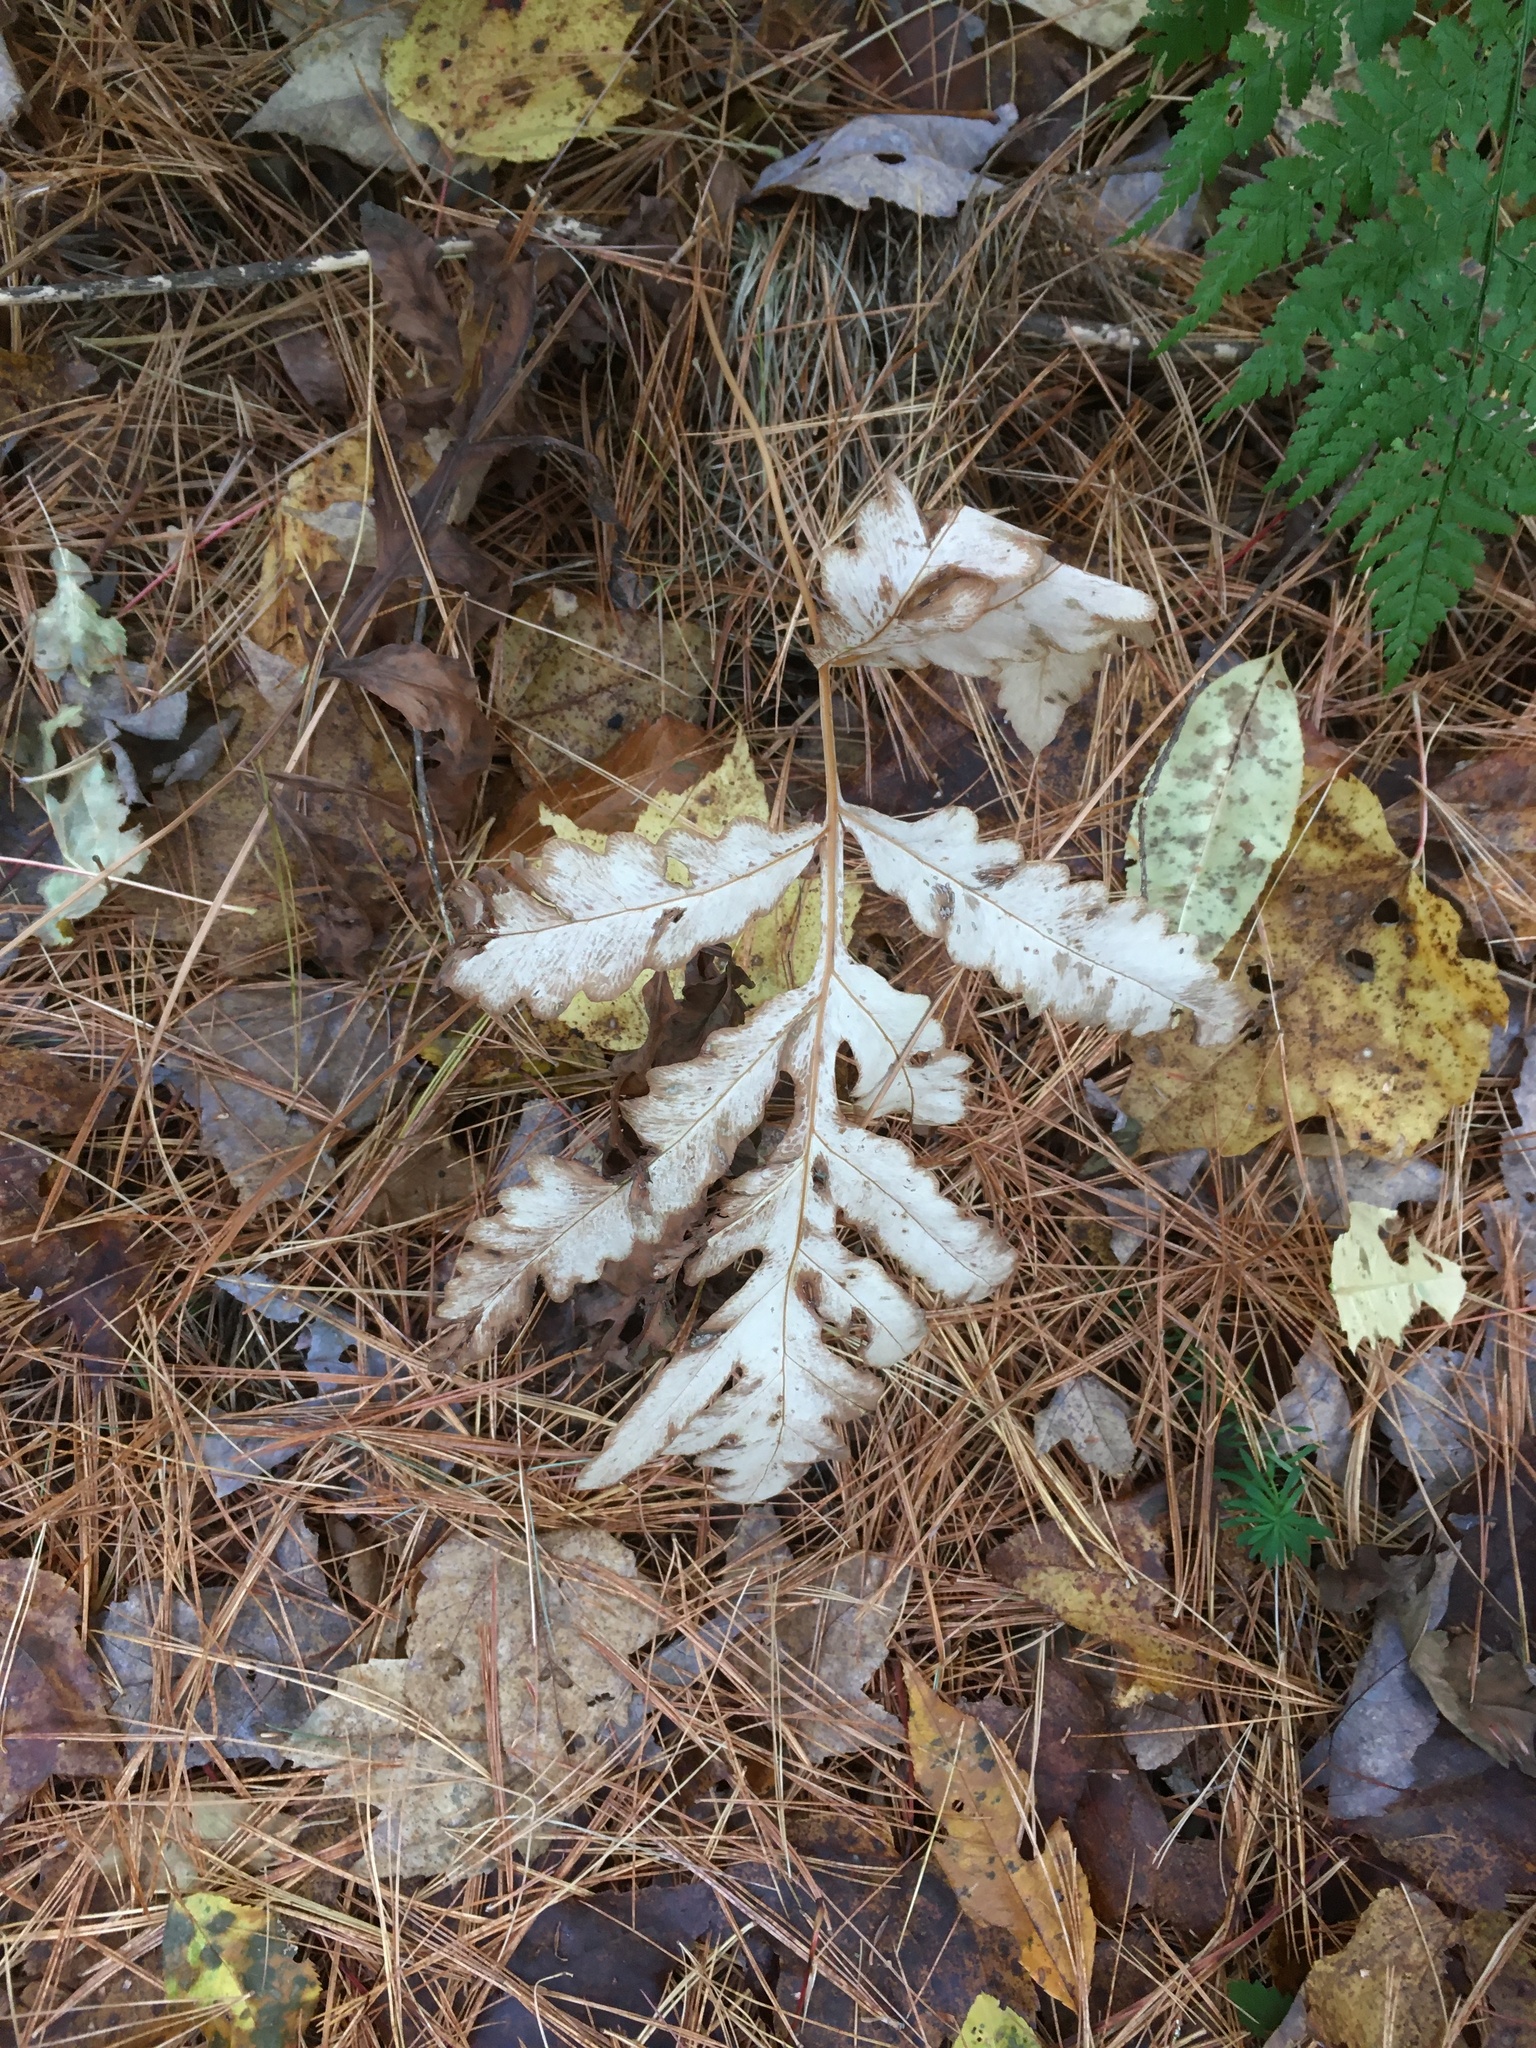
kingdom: Plantae
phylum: Tracheophyta
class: Polypodiopsida
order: Polypodiales
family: Onocleaceae
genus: Onoclea
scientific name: Onoclea sensibilis
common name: Sensitive fern
